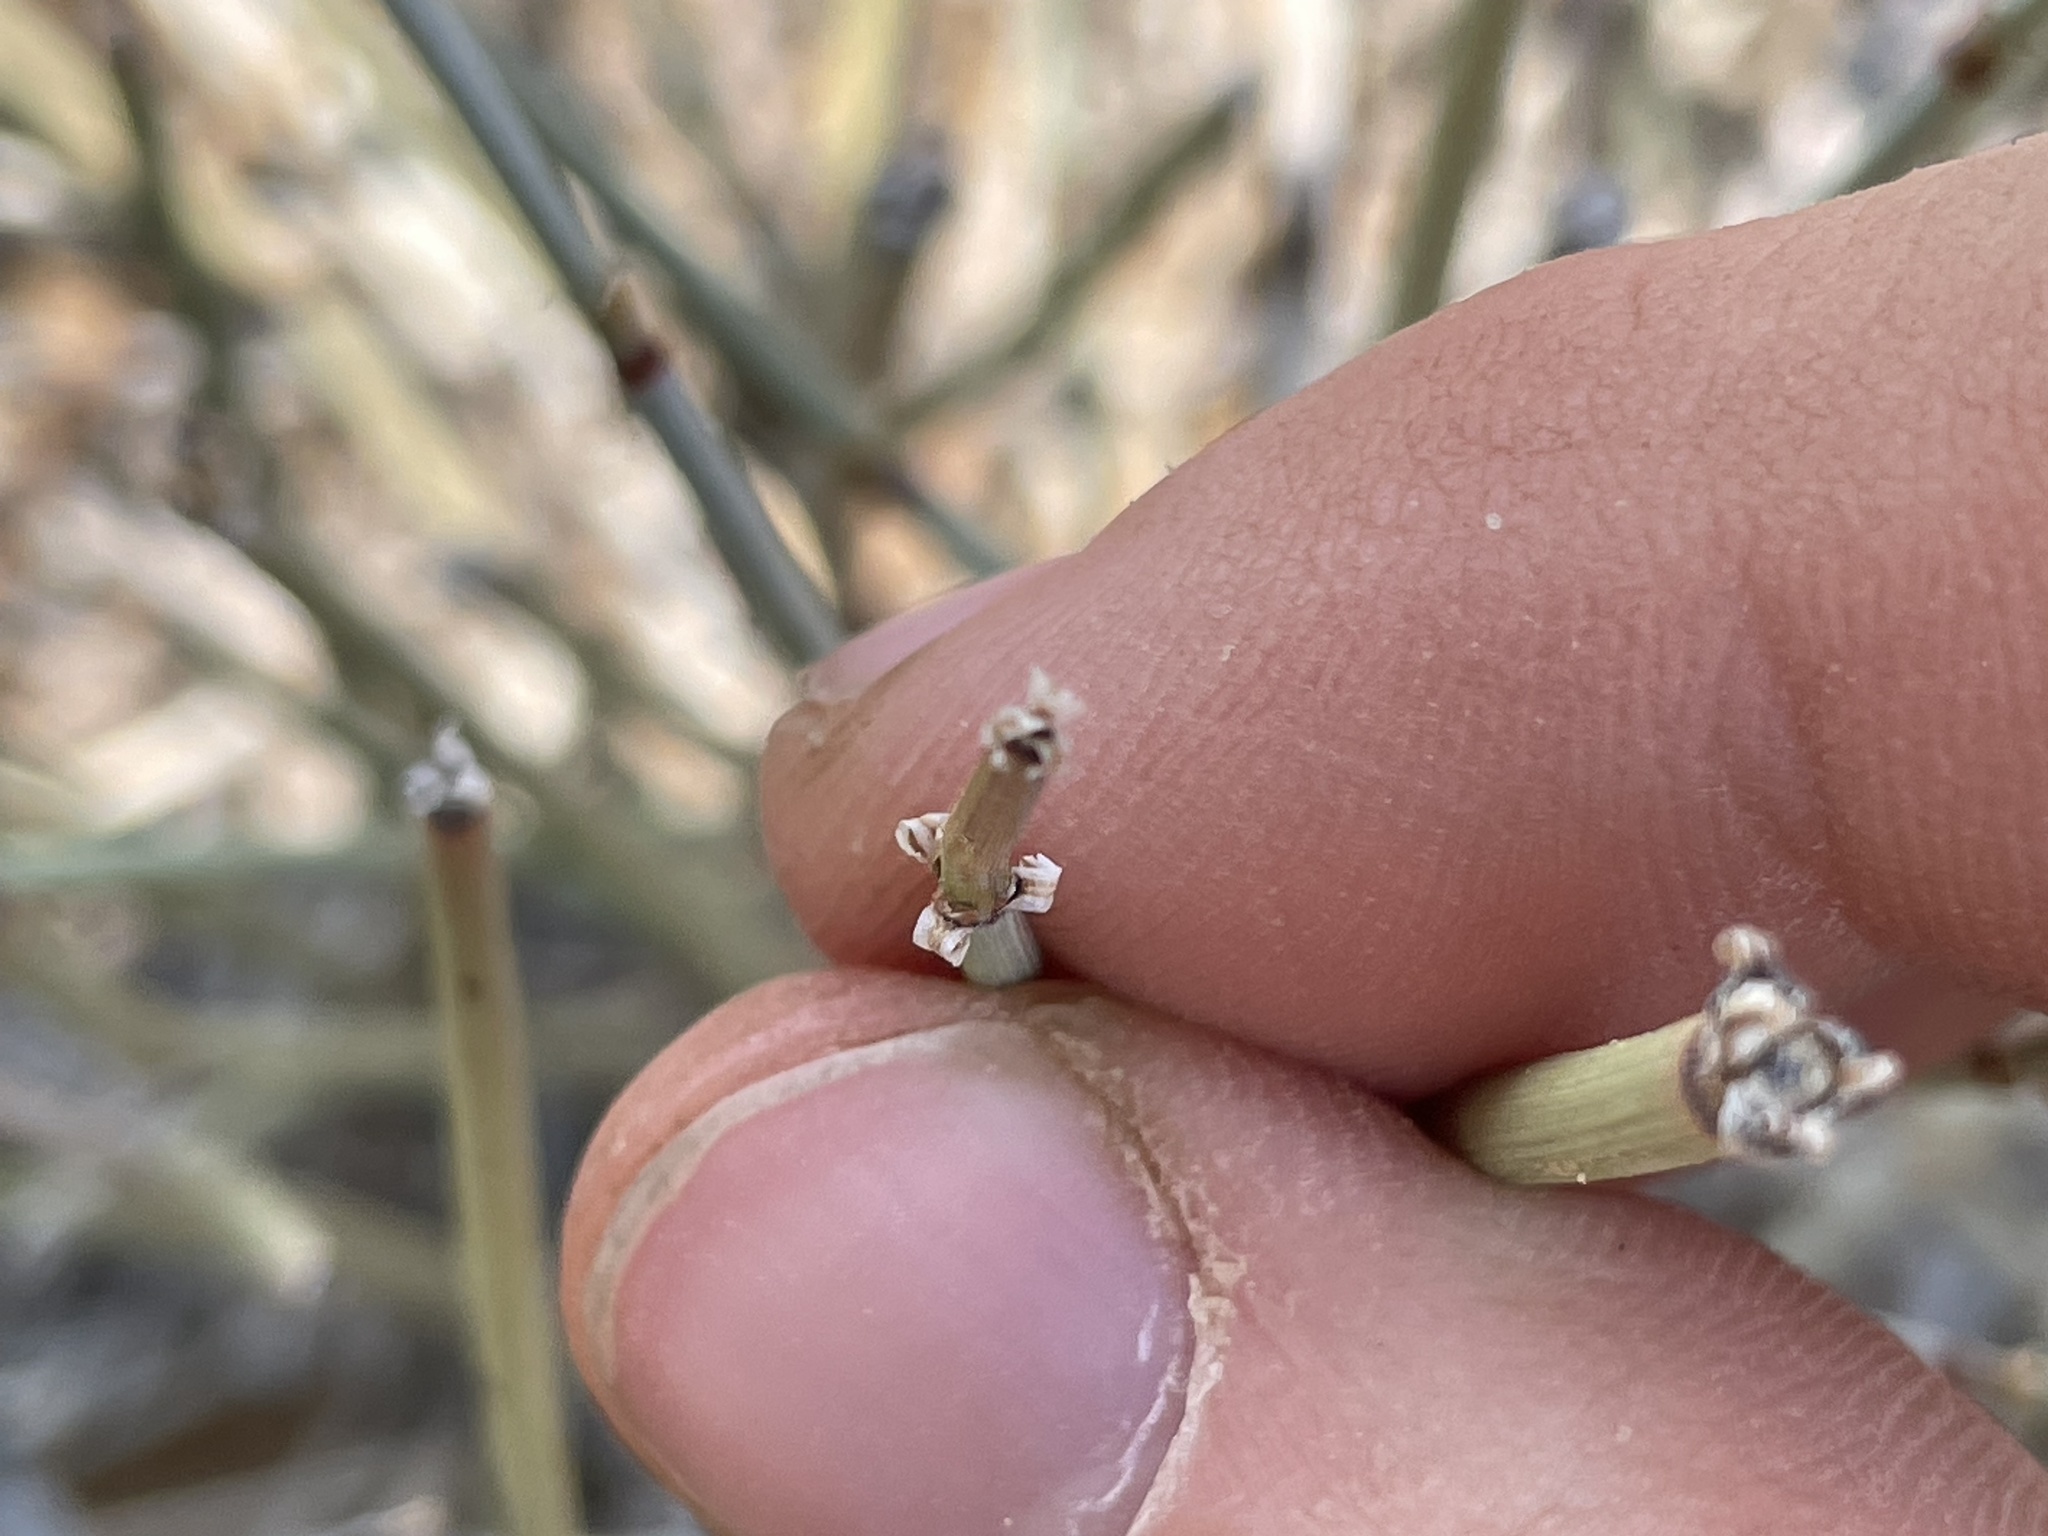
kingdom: Plantae
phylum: Tracheophyta
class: Gnetopsida
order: Ephedrales
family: Ephedraceae
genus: Ephedra
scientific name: Ephedra torreyana
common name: Torrey ephedra
